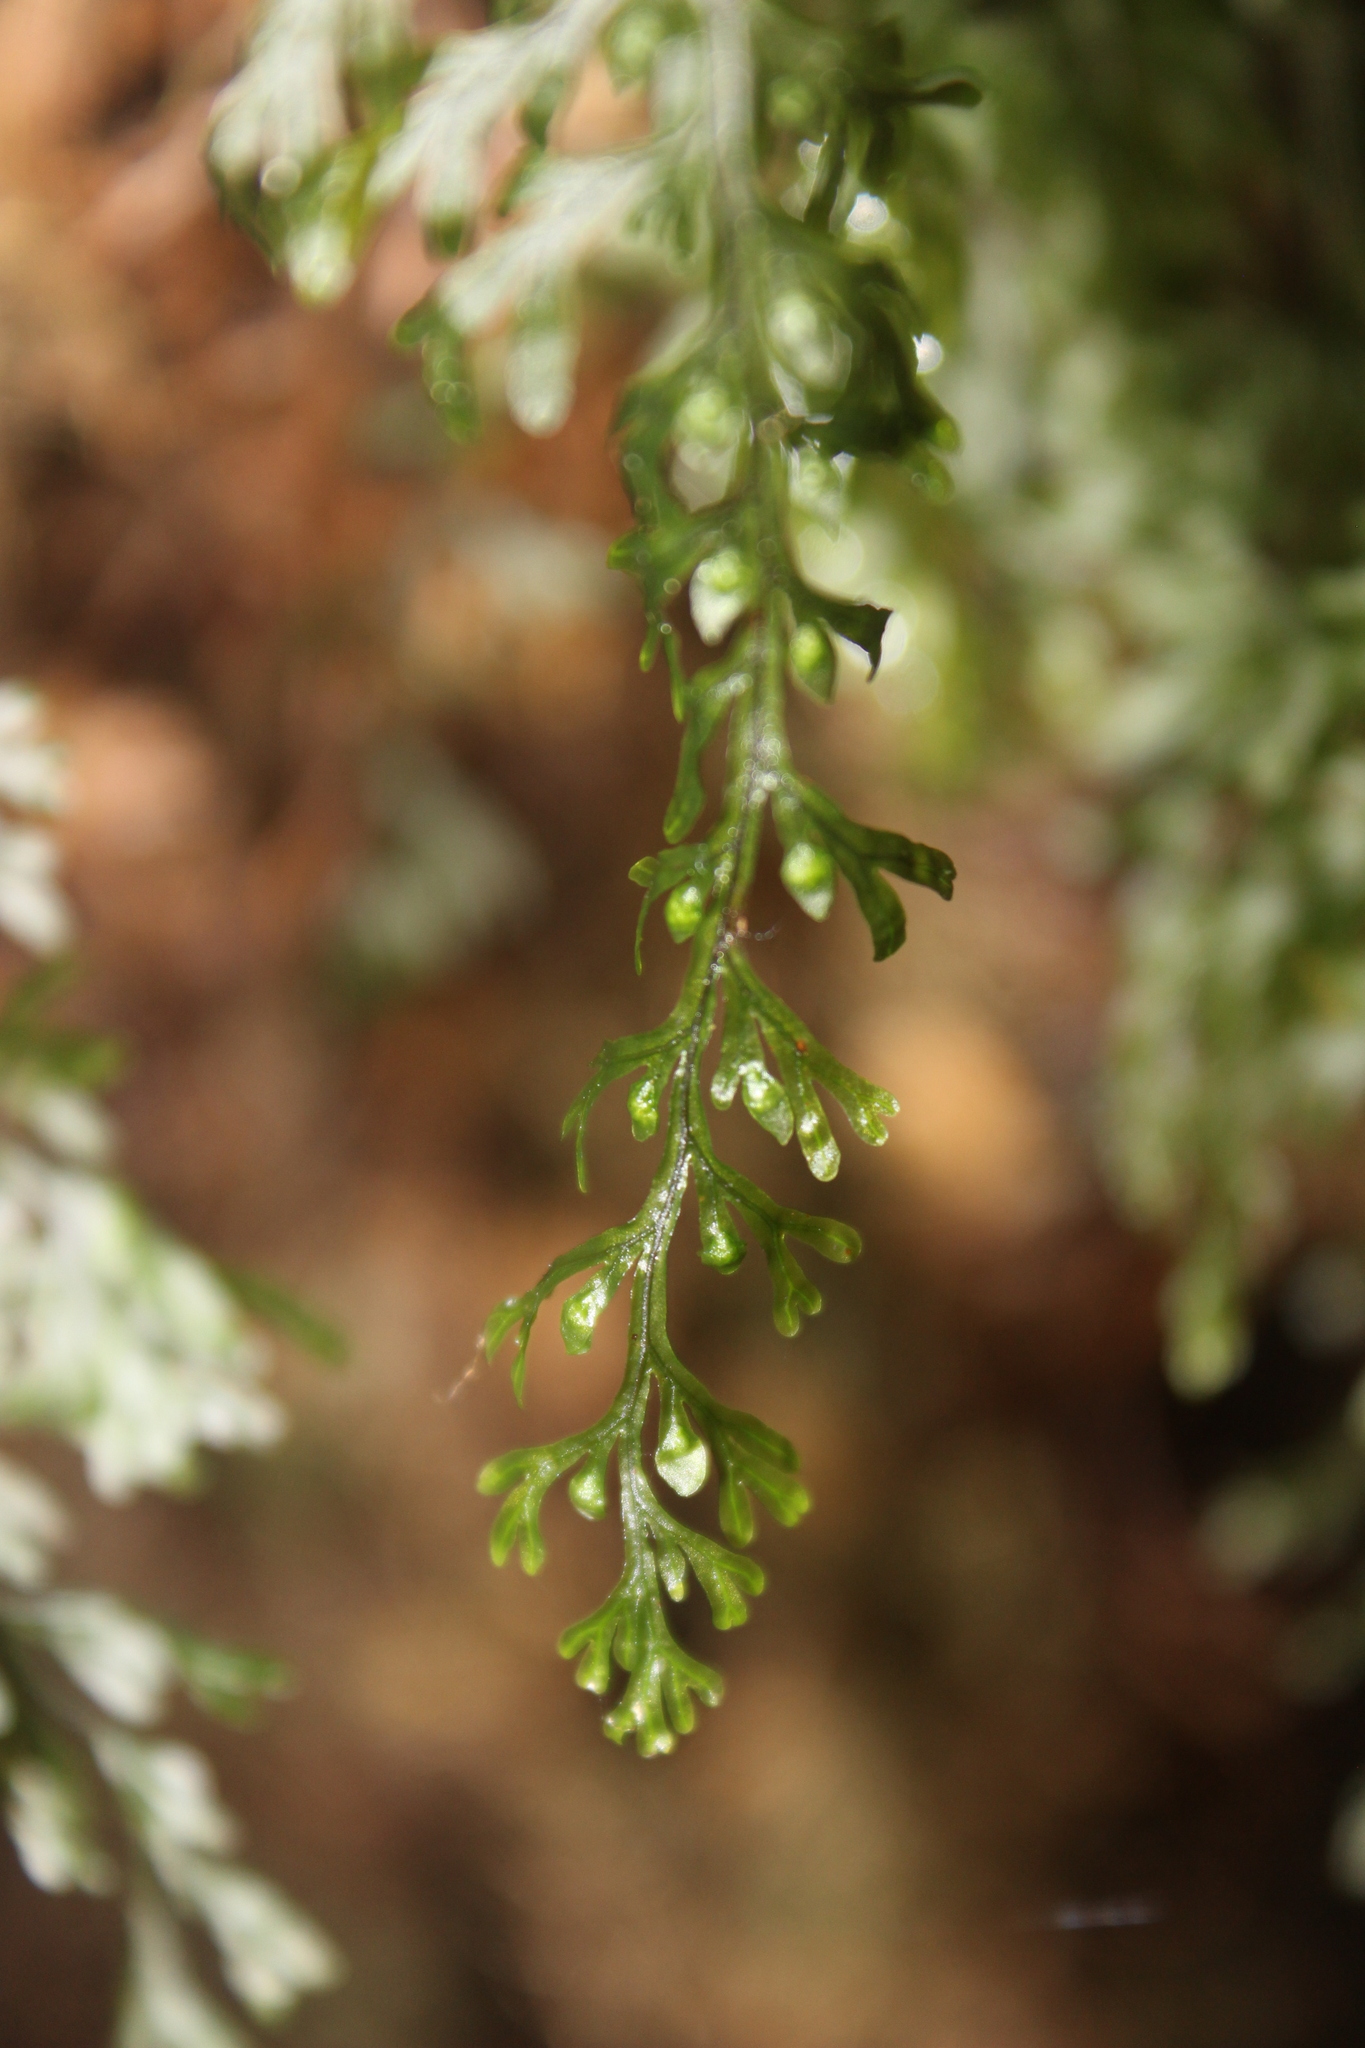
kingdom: Plantae
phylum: Tracheophyta
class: Polypodiopsida
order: Hymenophyllales
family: Hymenophyllaceae
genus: Hymenophyllum
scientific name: Hymenophyllum pulcherrimum
